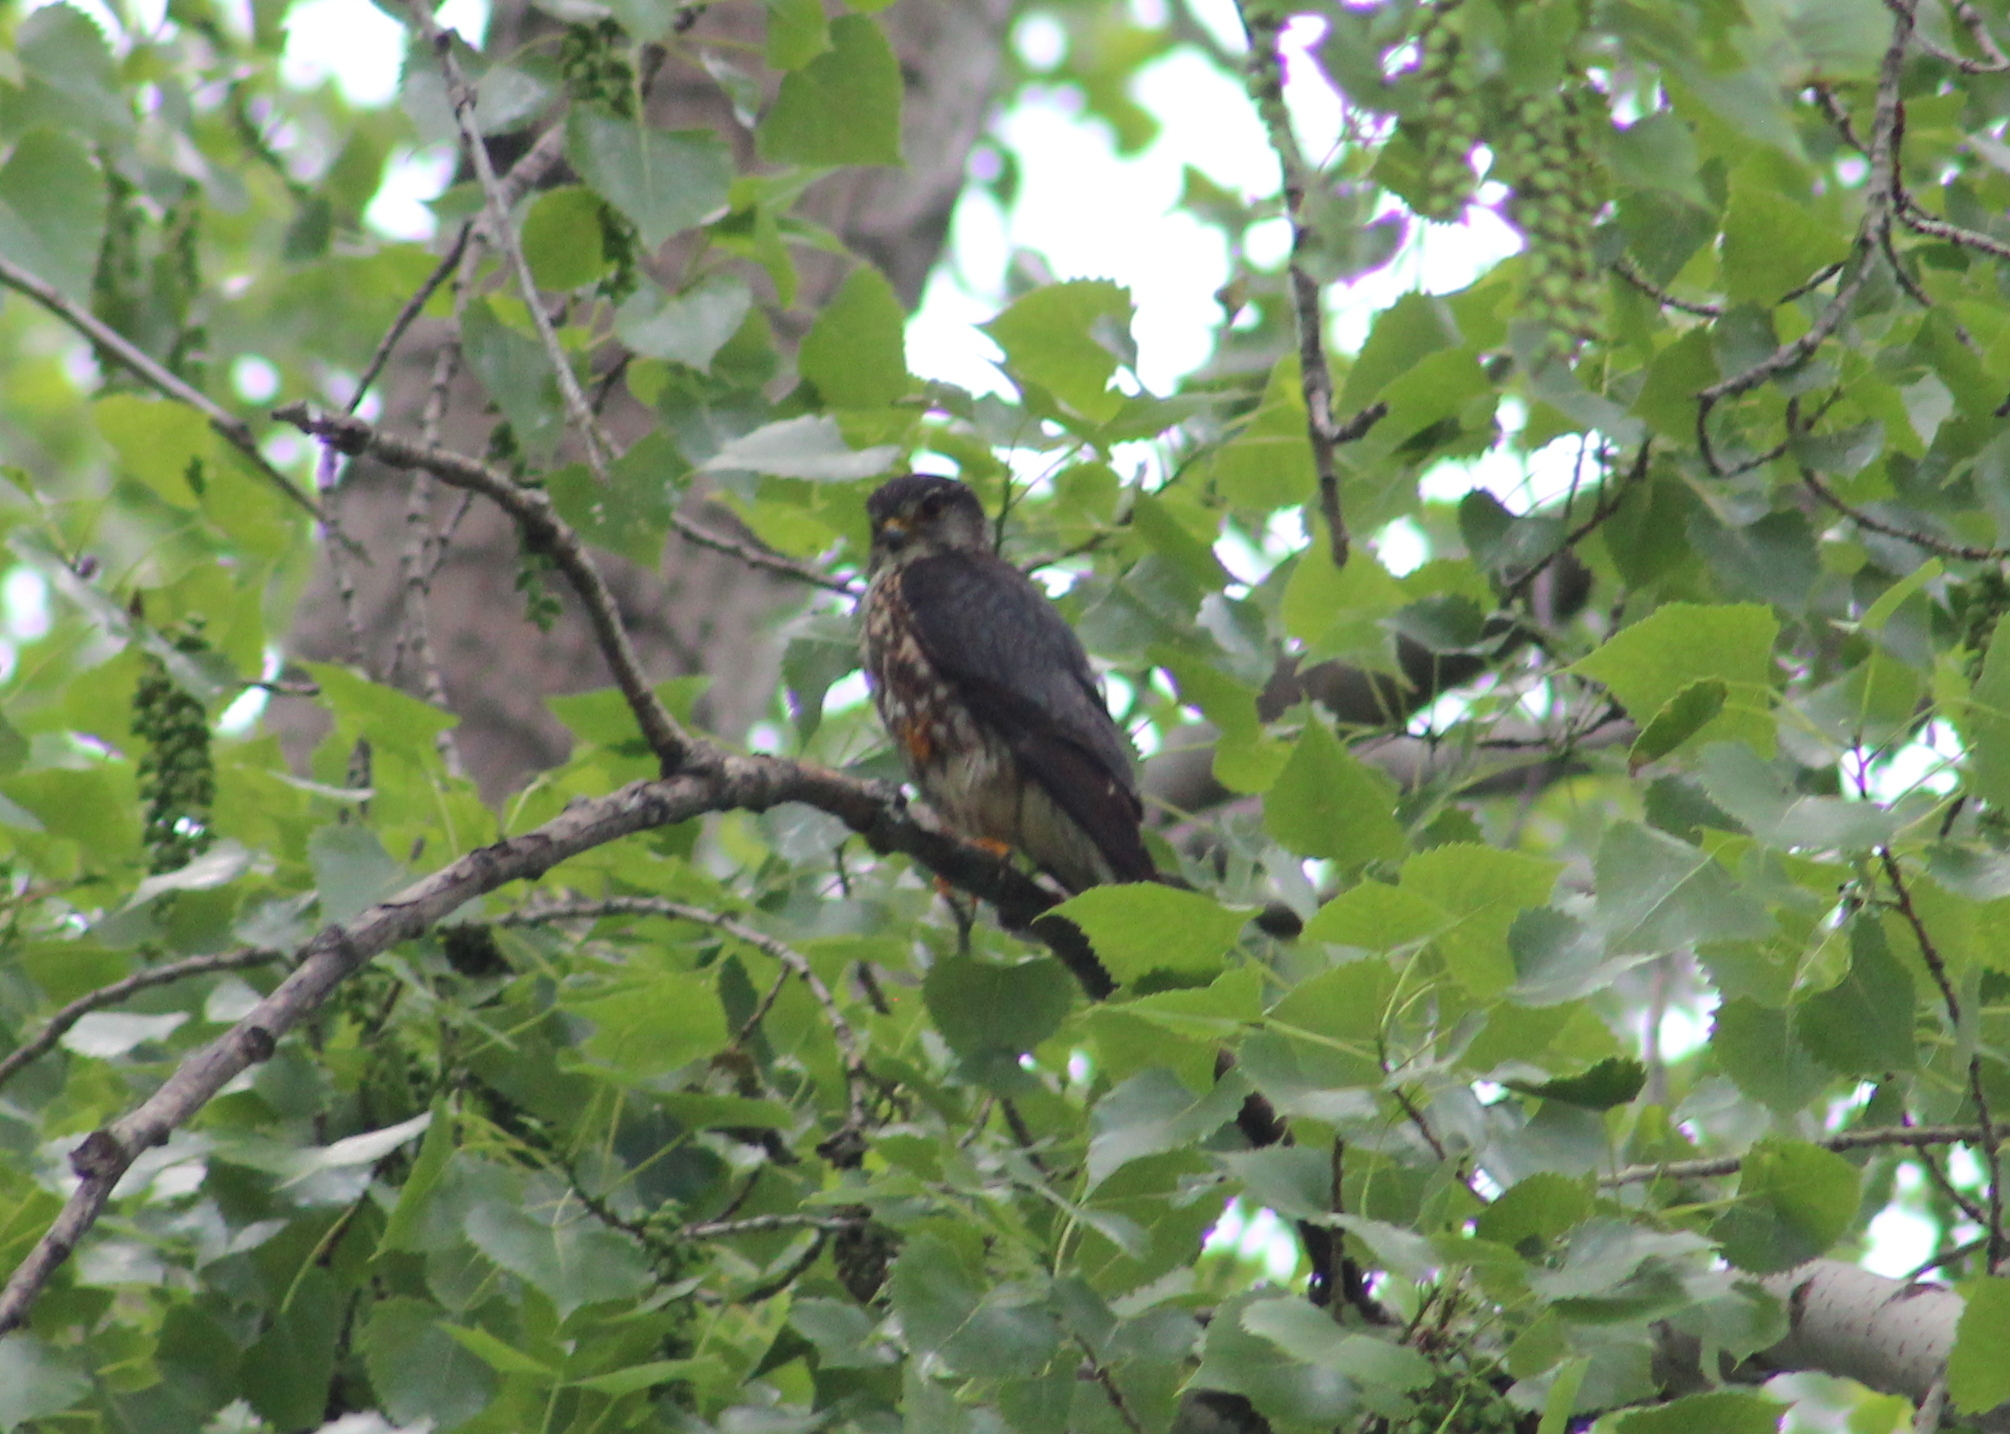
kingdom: Animalia
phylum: Chordata
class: Aves
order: Falconiformes
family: Falconidae
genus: Falco
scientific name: Falco columbarius
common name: Merlin
